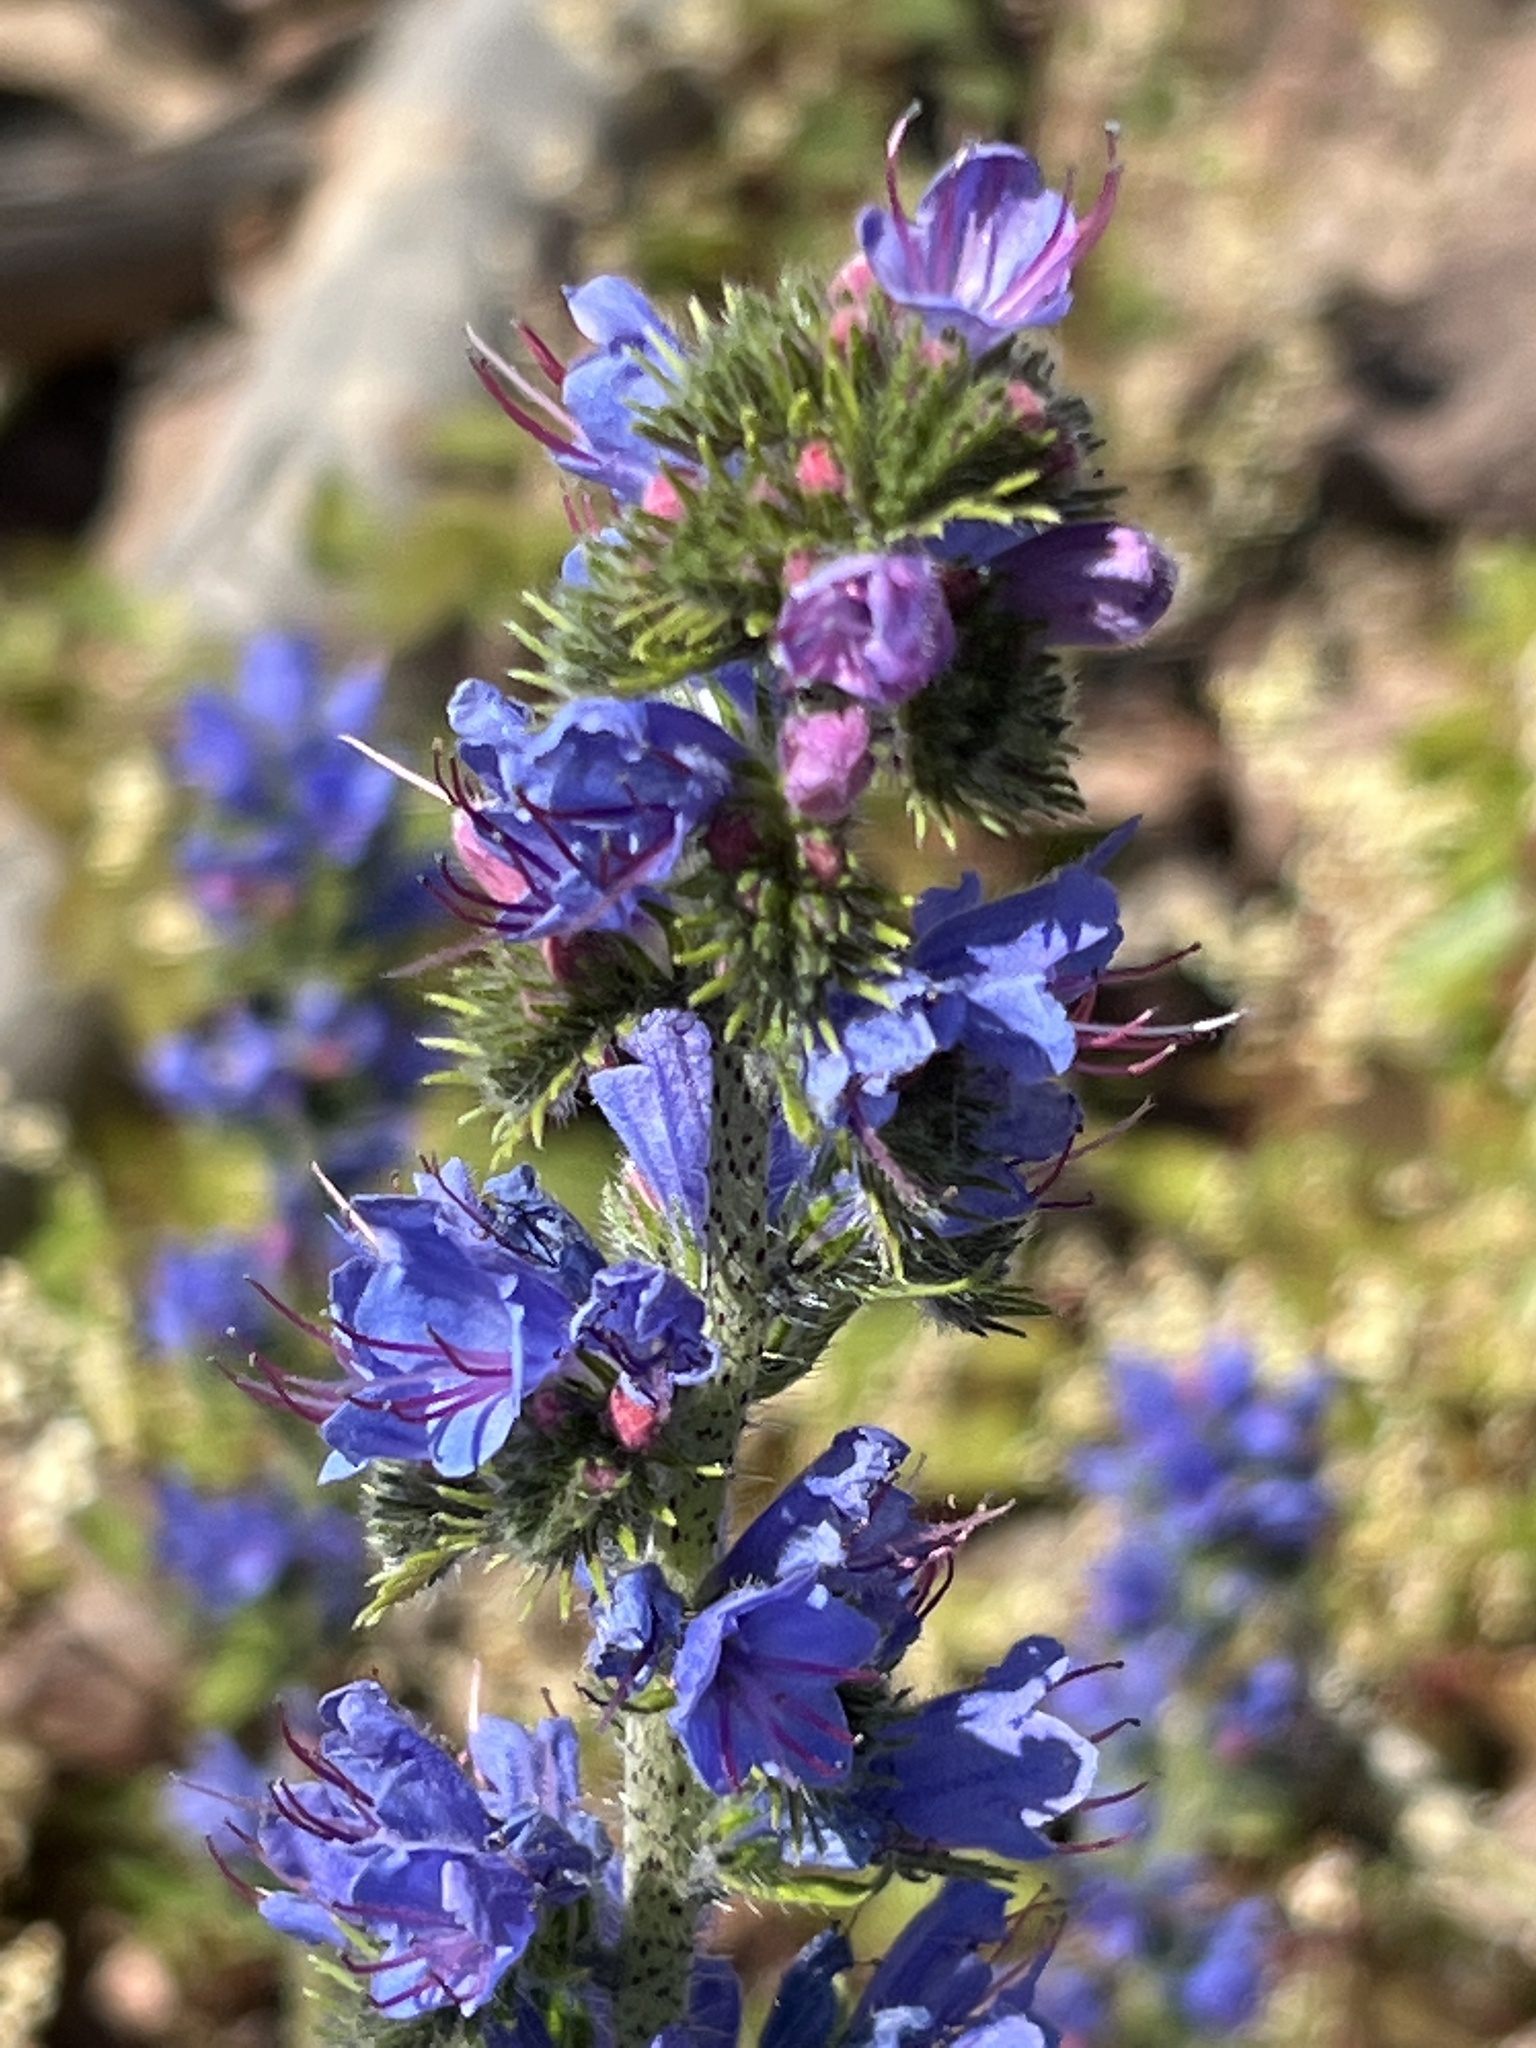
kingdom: Plantae
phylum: Tracheophyta
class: Magnoliopsida
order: Boraginales
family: Boraginaceae
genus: Echium
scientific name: Echium vulgare
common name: Common viper's bugloss
